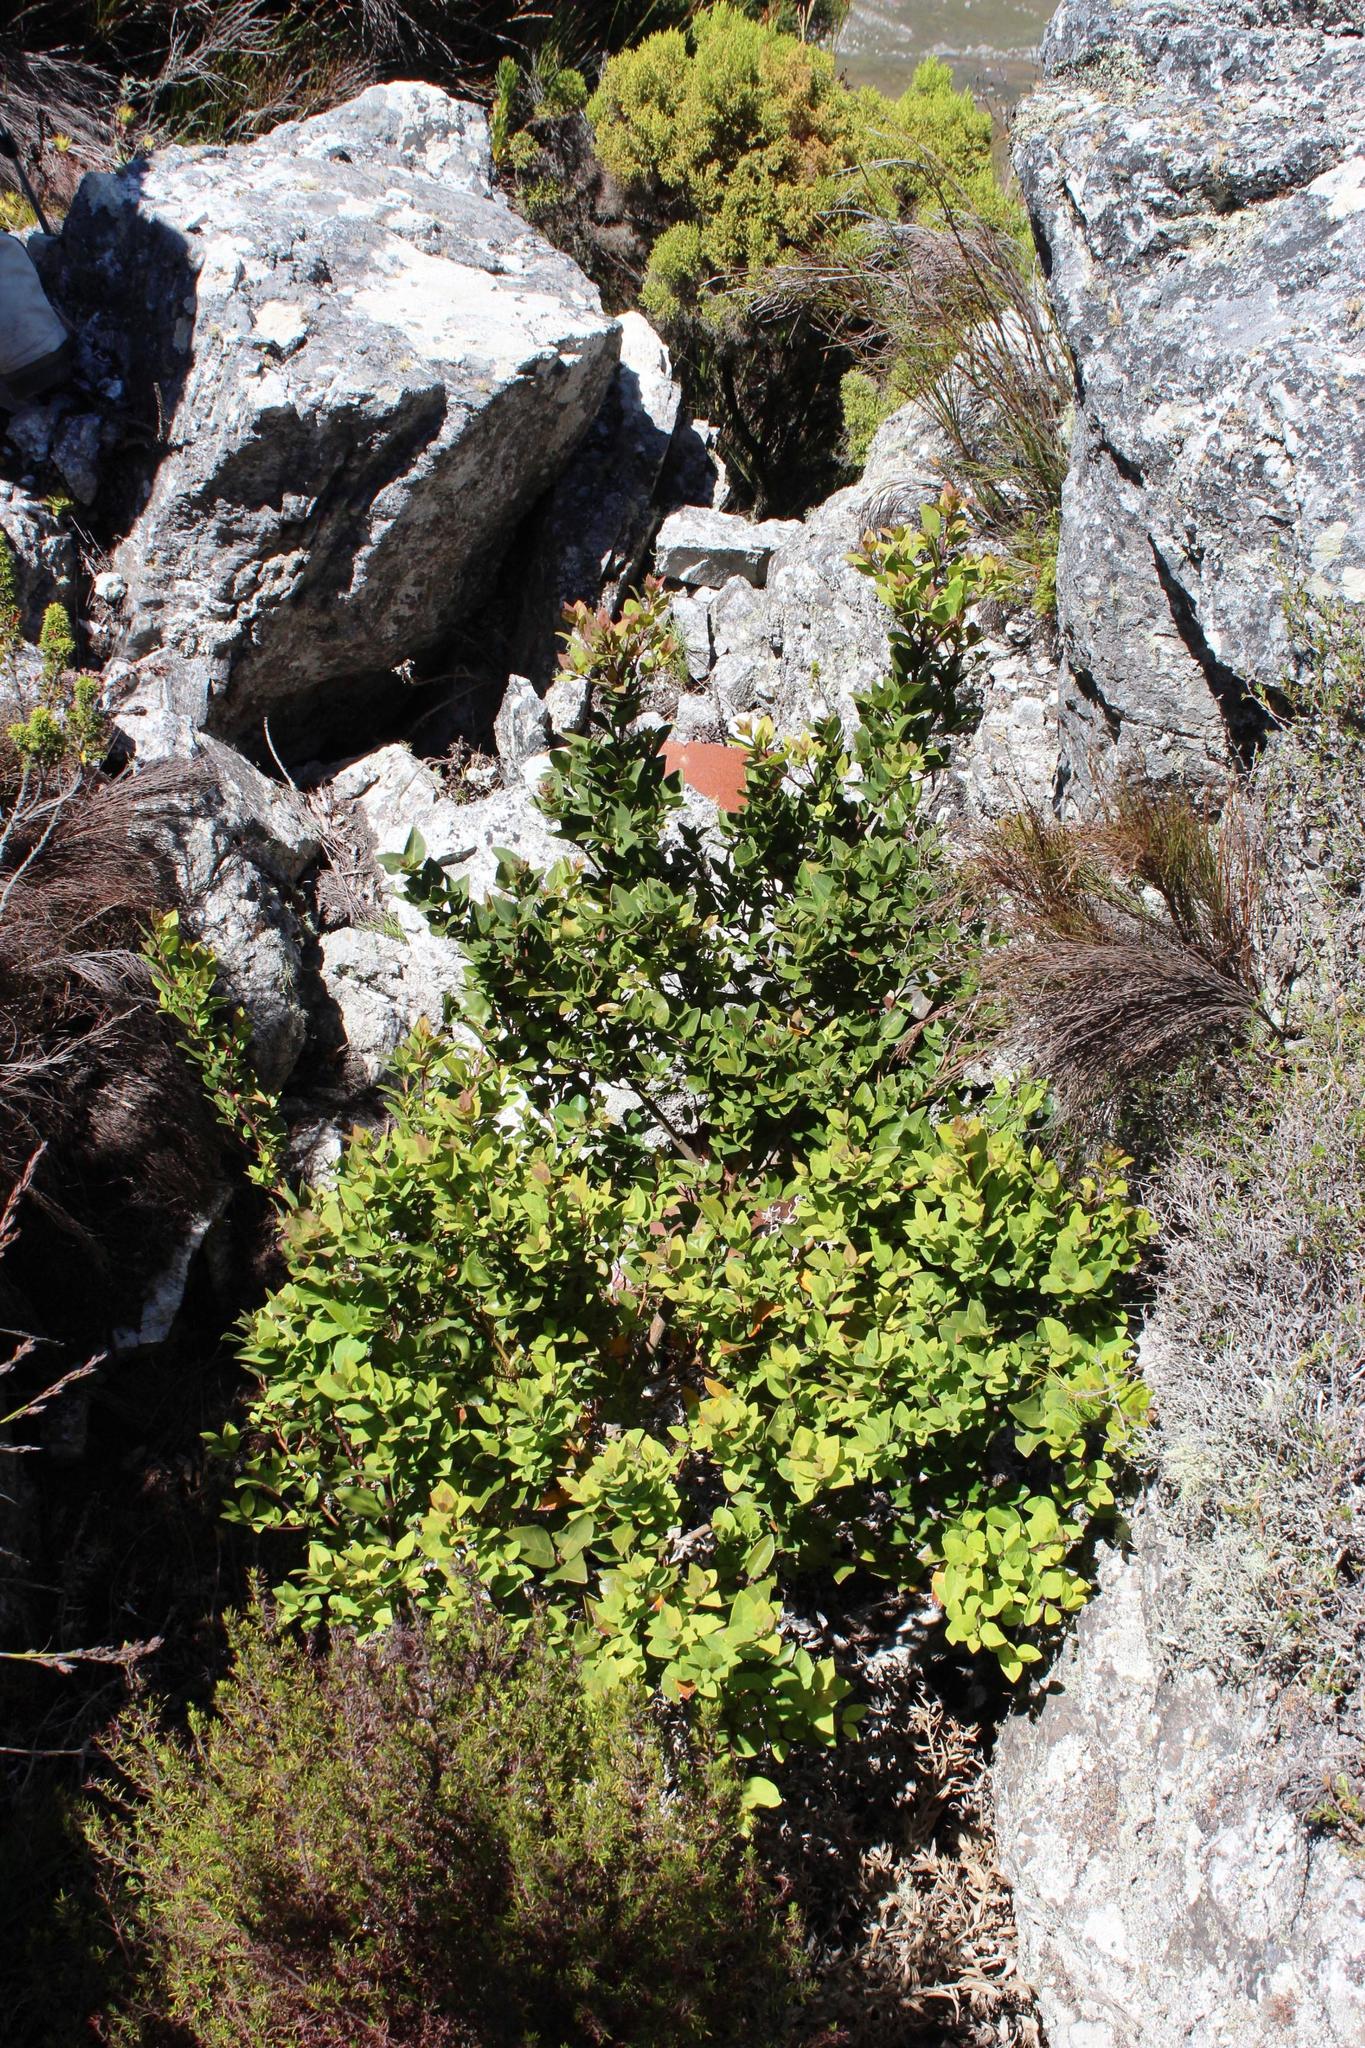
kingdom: Plantae
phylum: Tracheophyta
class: Magnoliopsida
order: Metteniusales
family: Metteniusaceae
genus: Apodytes
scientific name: Apodytes geldenhuysii
